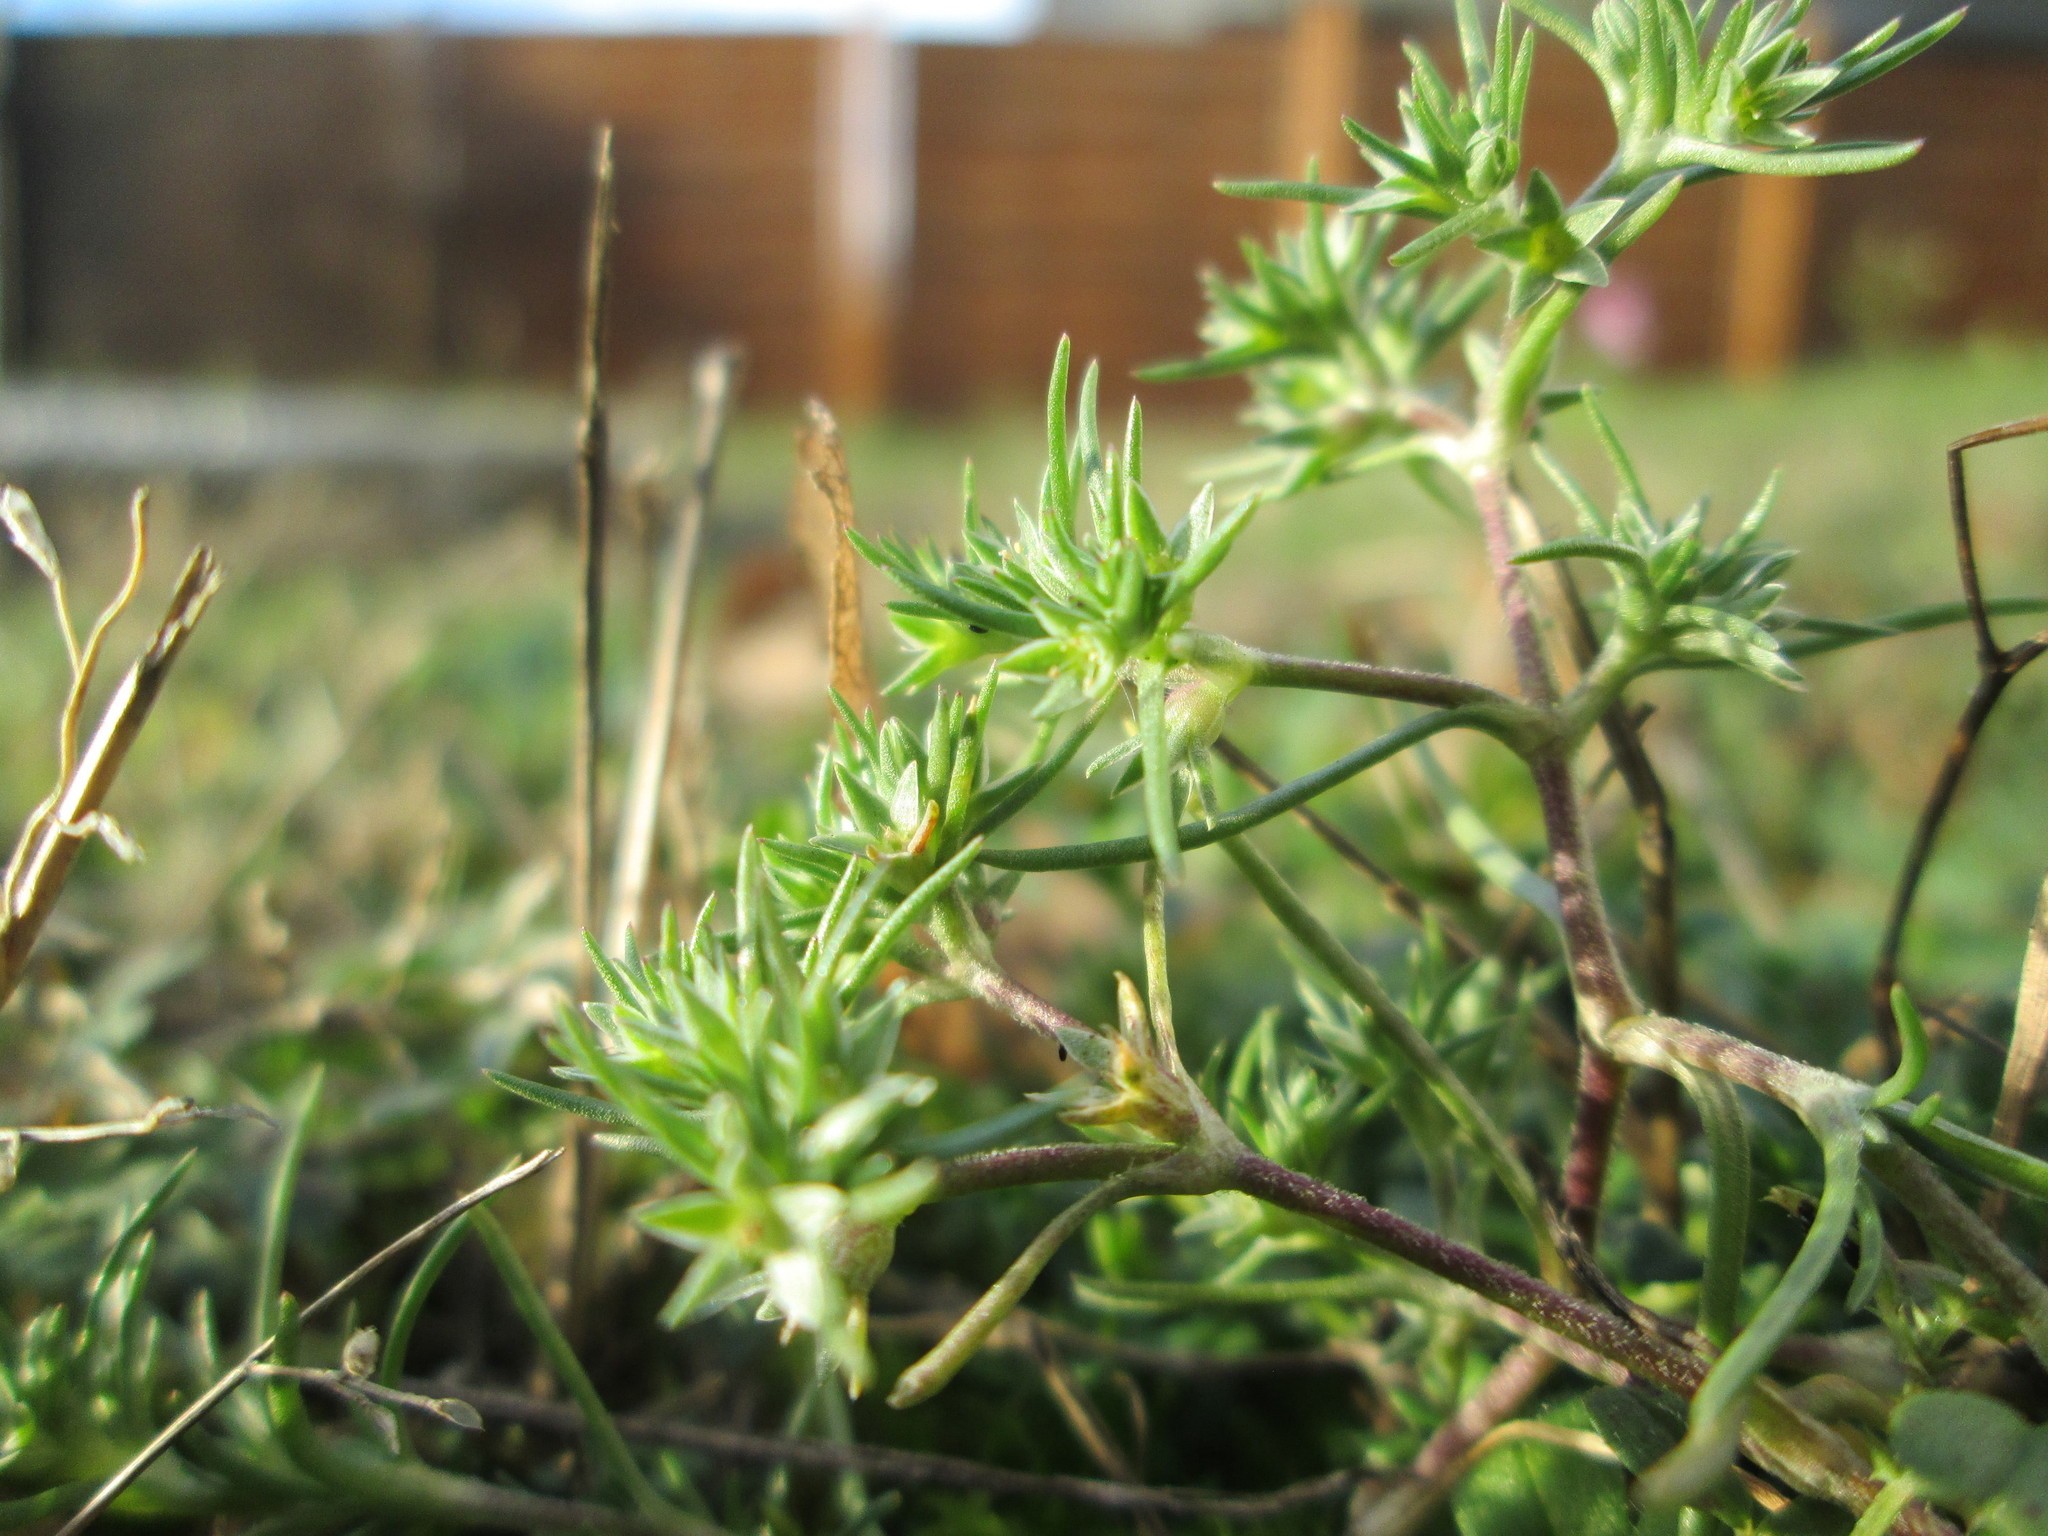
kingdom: Plantae
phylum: Tracheophyta
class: Magnoliopsida
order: Caryophyllales
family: Caryophyllaceae
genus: Scleranthus
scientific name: Scleranthus annuus
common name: Annual knawel
